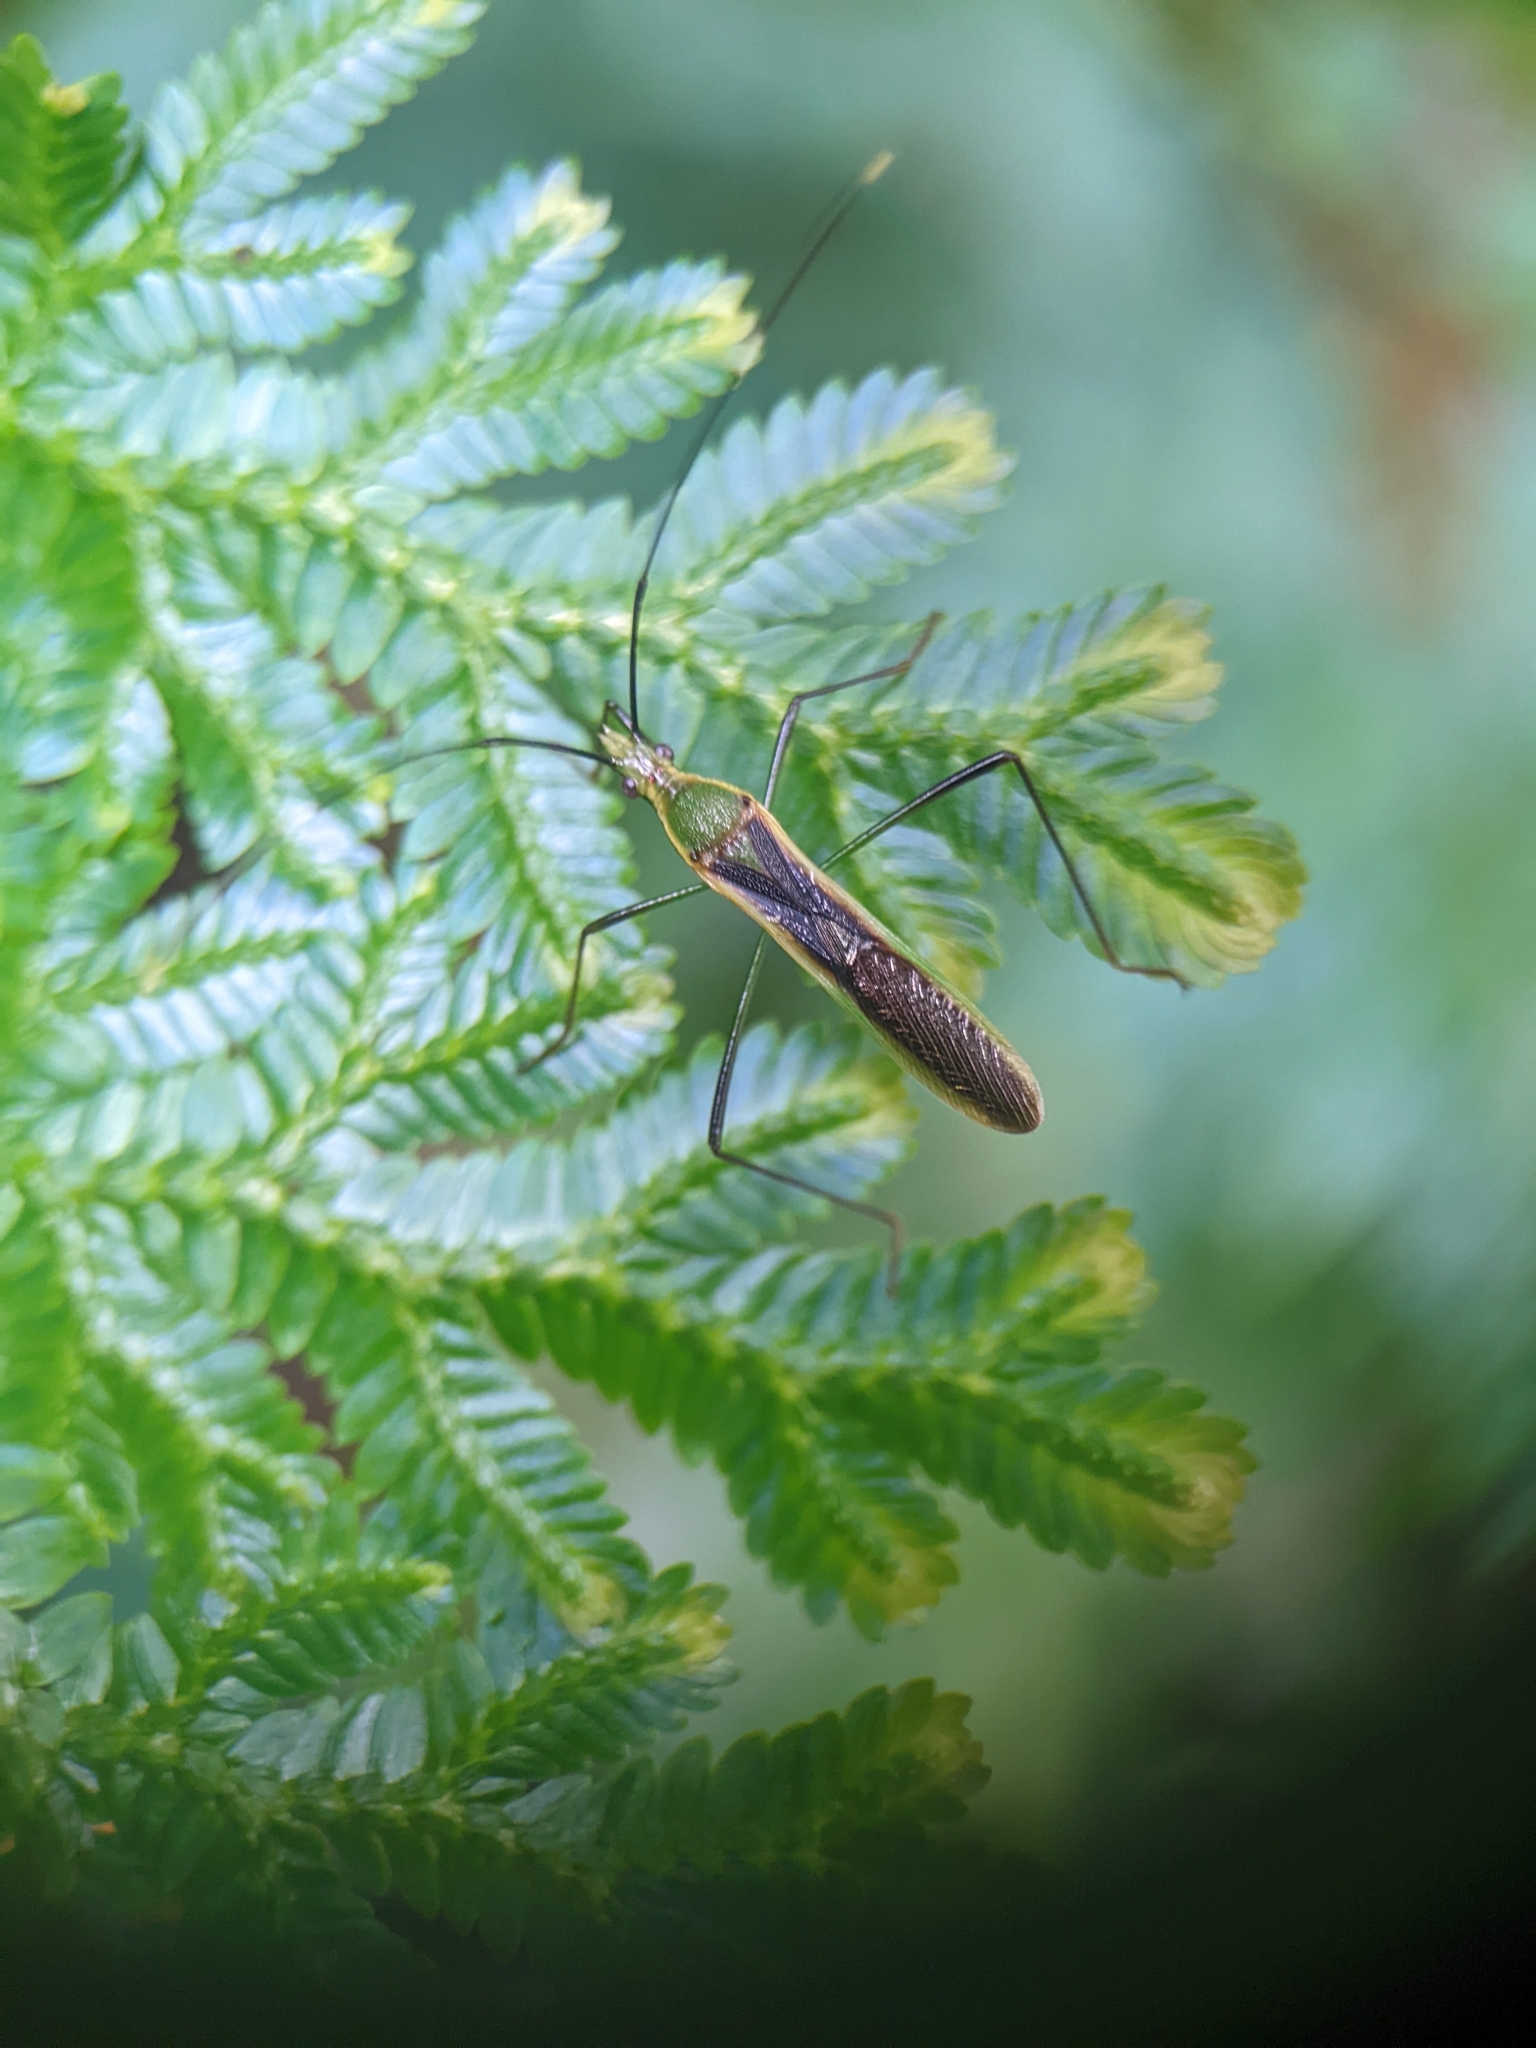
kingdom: Animalia
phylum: Arthropoda
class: Insecta
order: Hemiptera
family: Alydidae
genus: Leptocorisa
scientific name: Leptocorisa costalis
